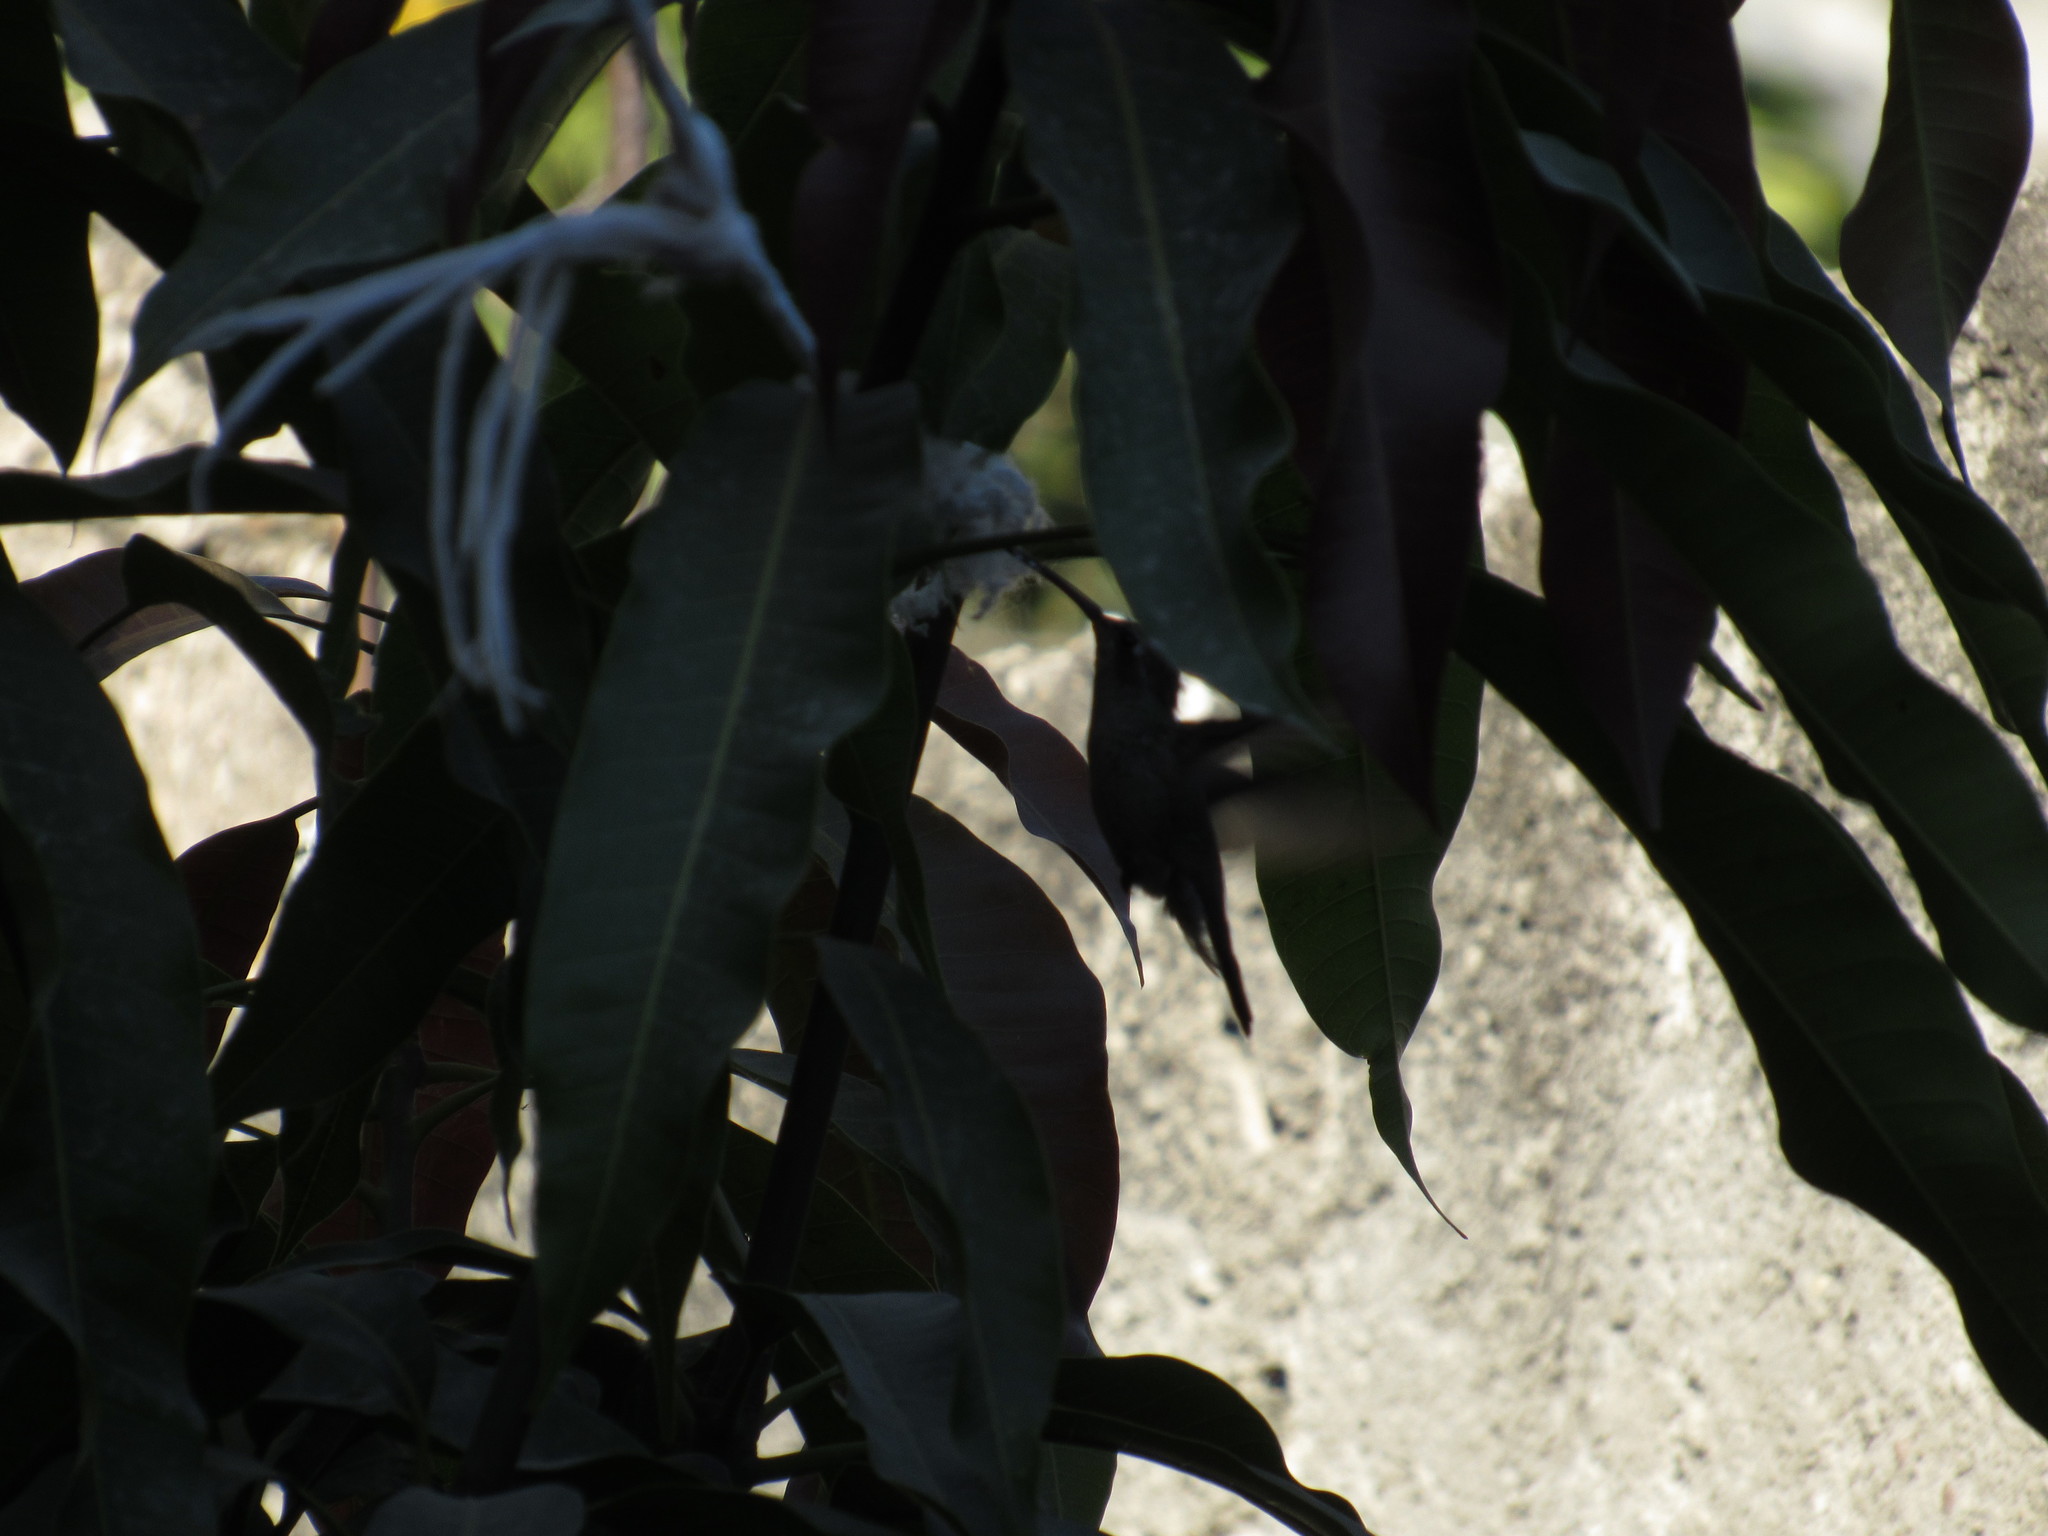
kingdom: Animalia
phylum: Chordata
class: Aves
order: Apodiformes
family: Trochilidae
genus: Cynanthus
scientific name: Cynanthus latirostris
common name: Broad-billed hummingbird
